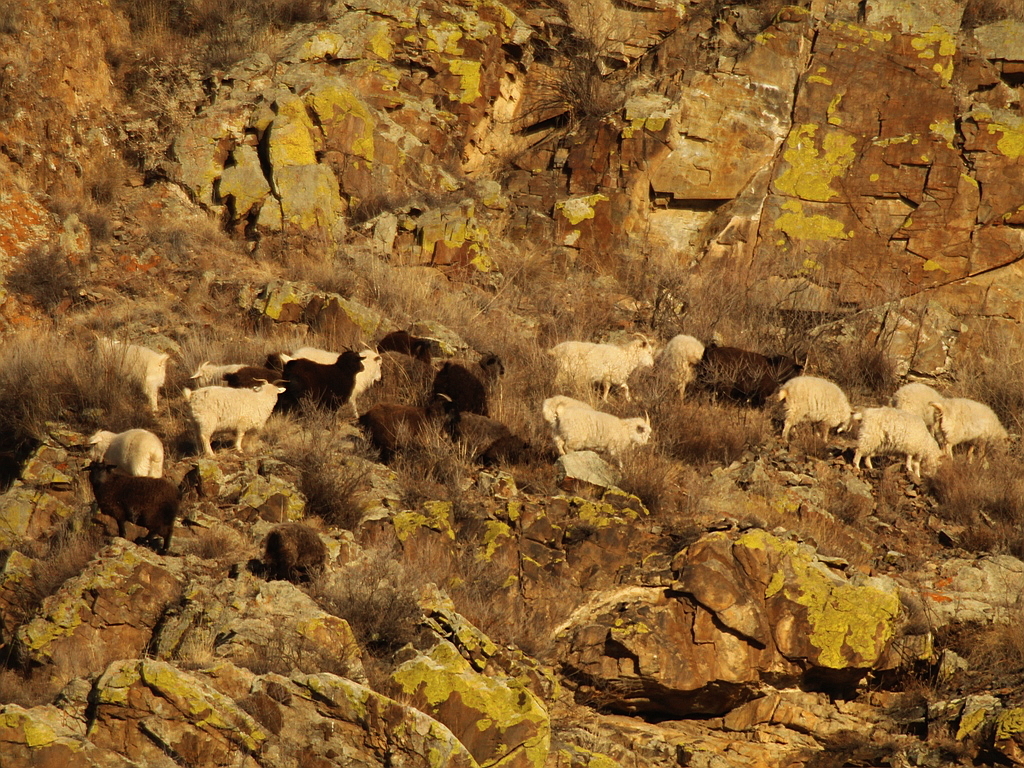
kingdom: Animalia
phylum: Chordata
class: Mammalia
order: Artiodactyla
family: Bovidae
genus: Capra
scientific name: Capra hircus
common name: Domestic goat
